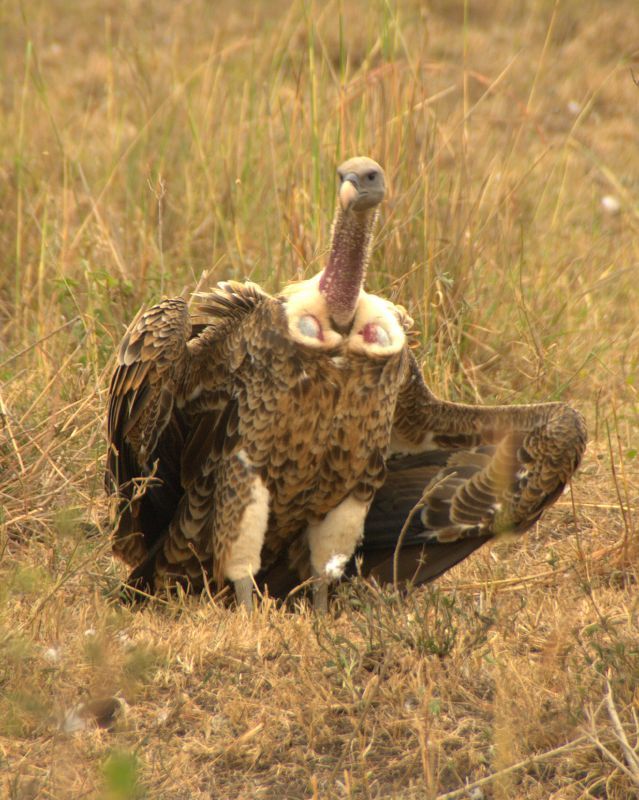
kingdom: Animalia
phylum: Chordata
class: Aves
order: Accipitriformes
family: Accipitridae
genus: Gyps
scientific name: Gyps rueppellii
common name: Rüppell's vulture
